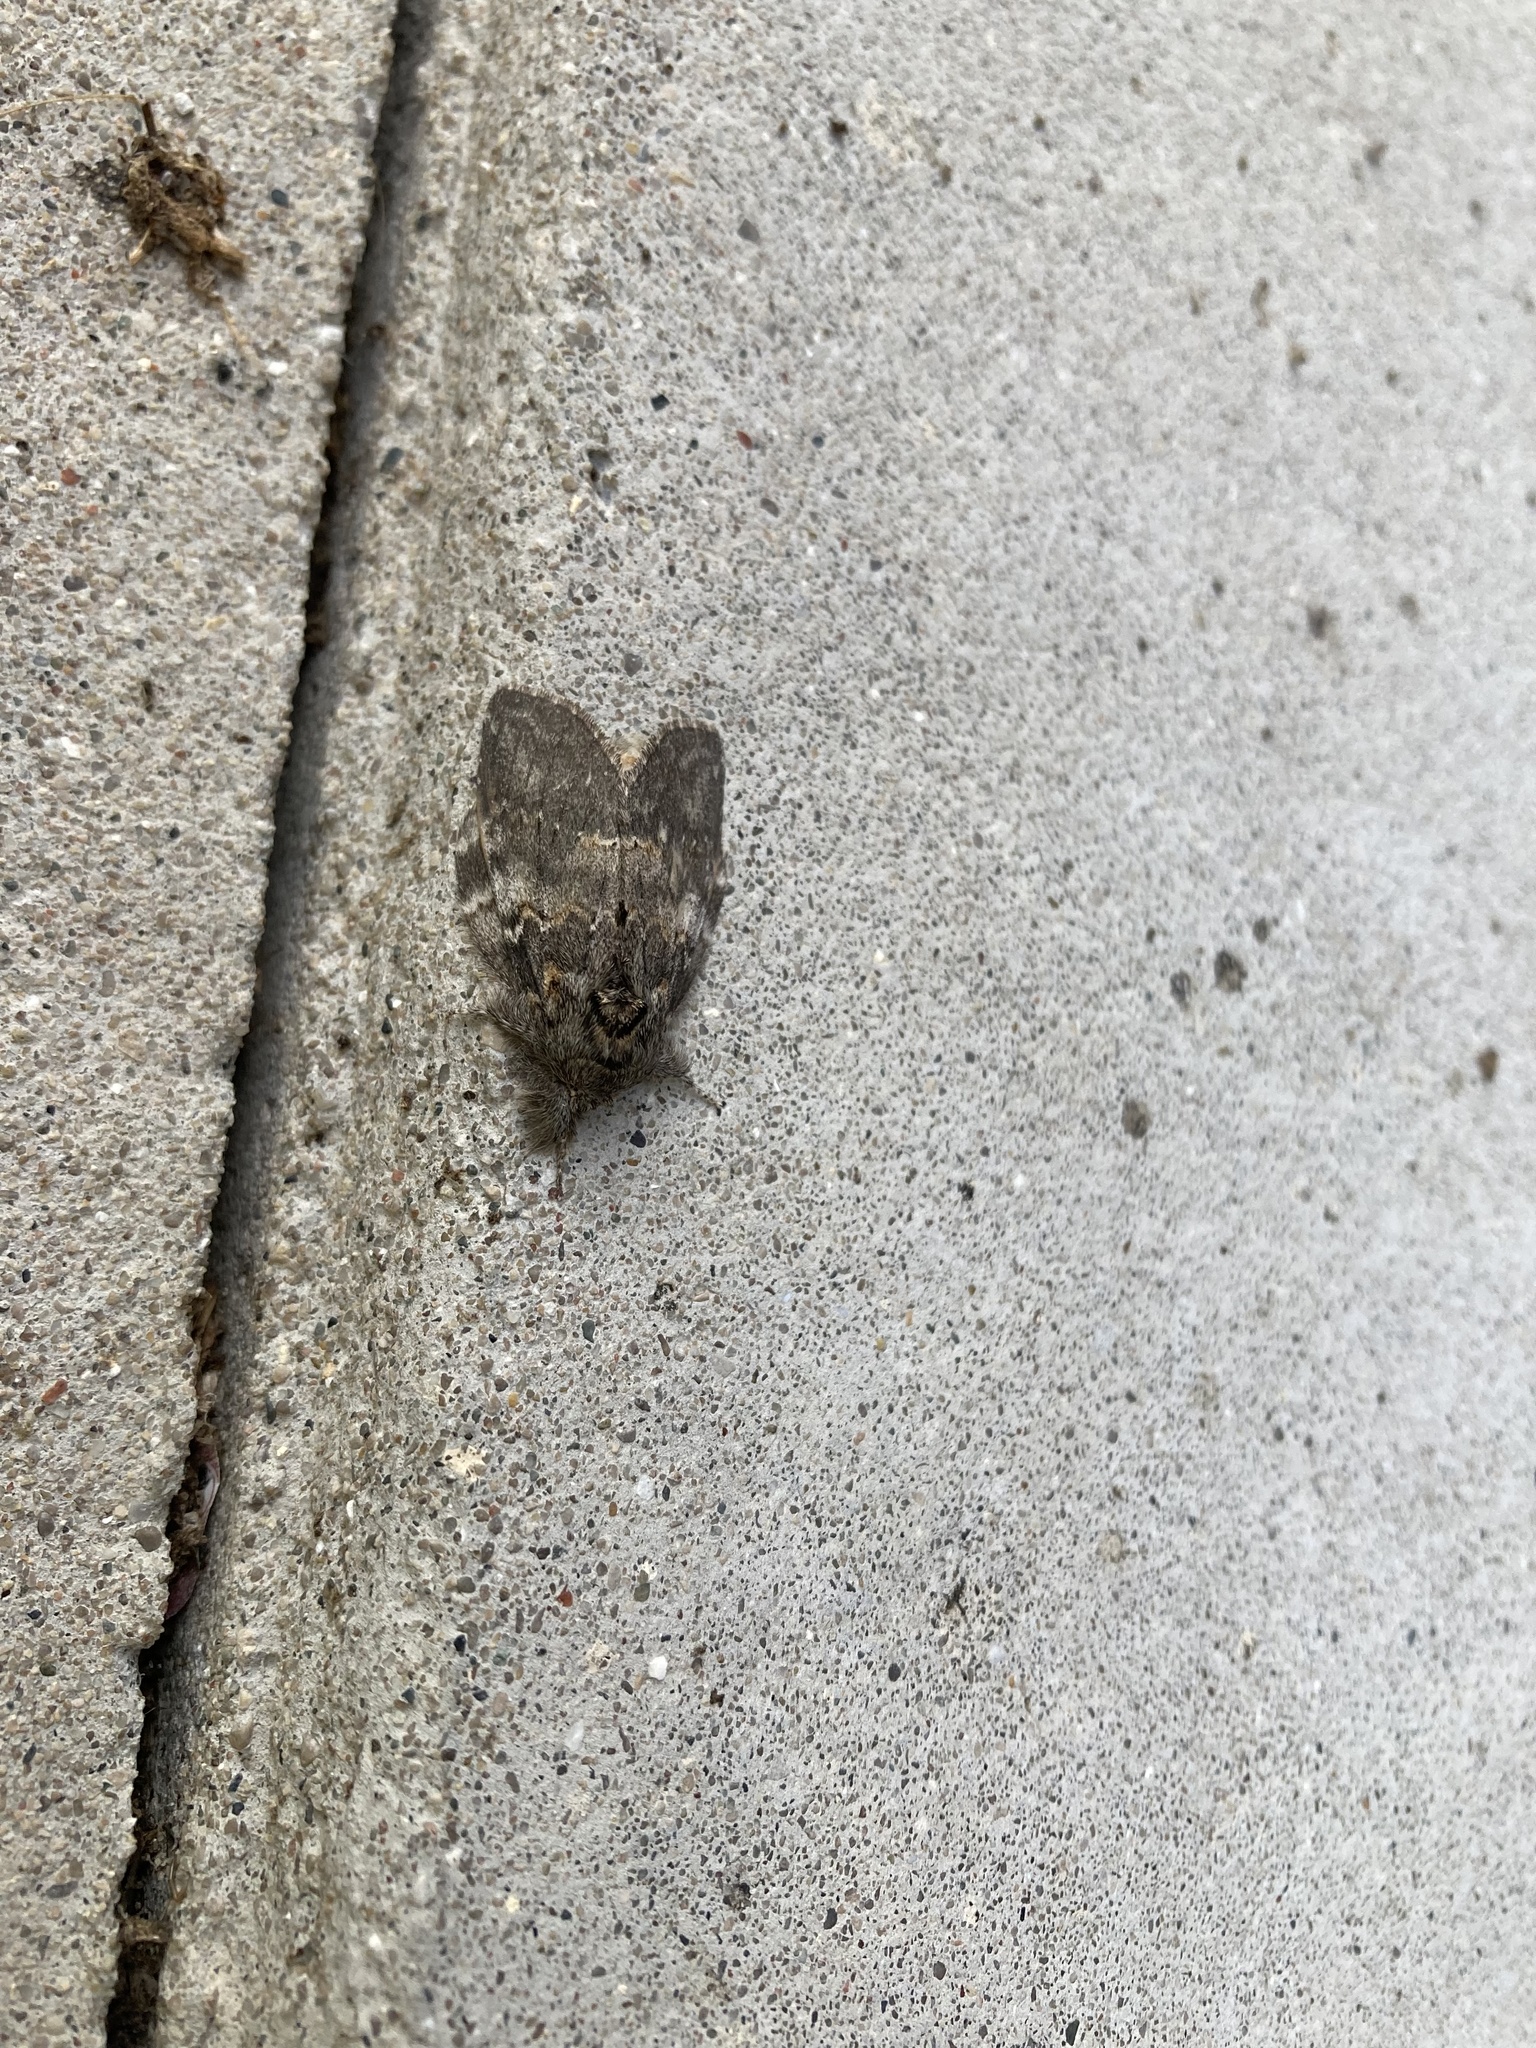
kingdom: Animalia
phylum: Arthropoda
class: Insecta
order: Lepidoptera
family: Notodontidae
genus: Peridea
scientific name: Peridea angulosa
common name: Angulose prominent
